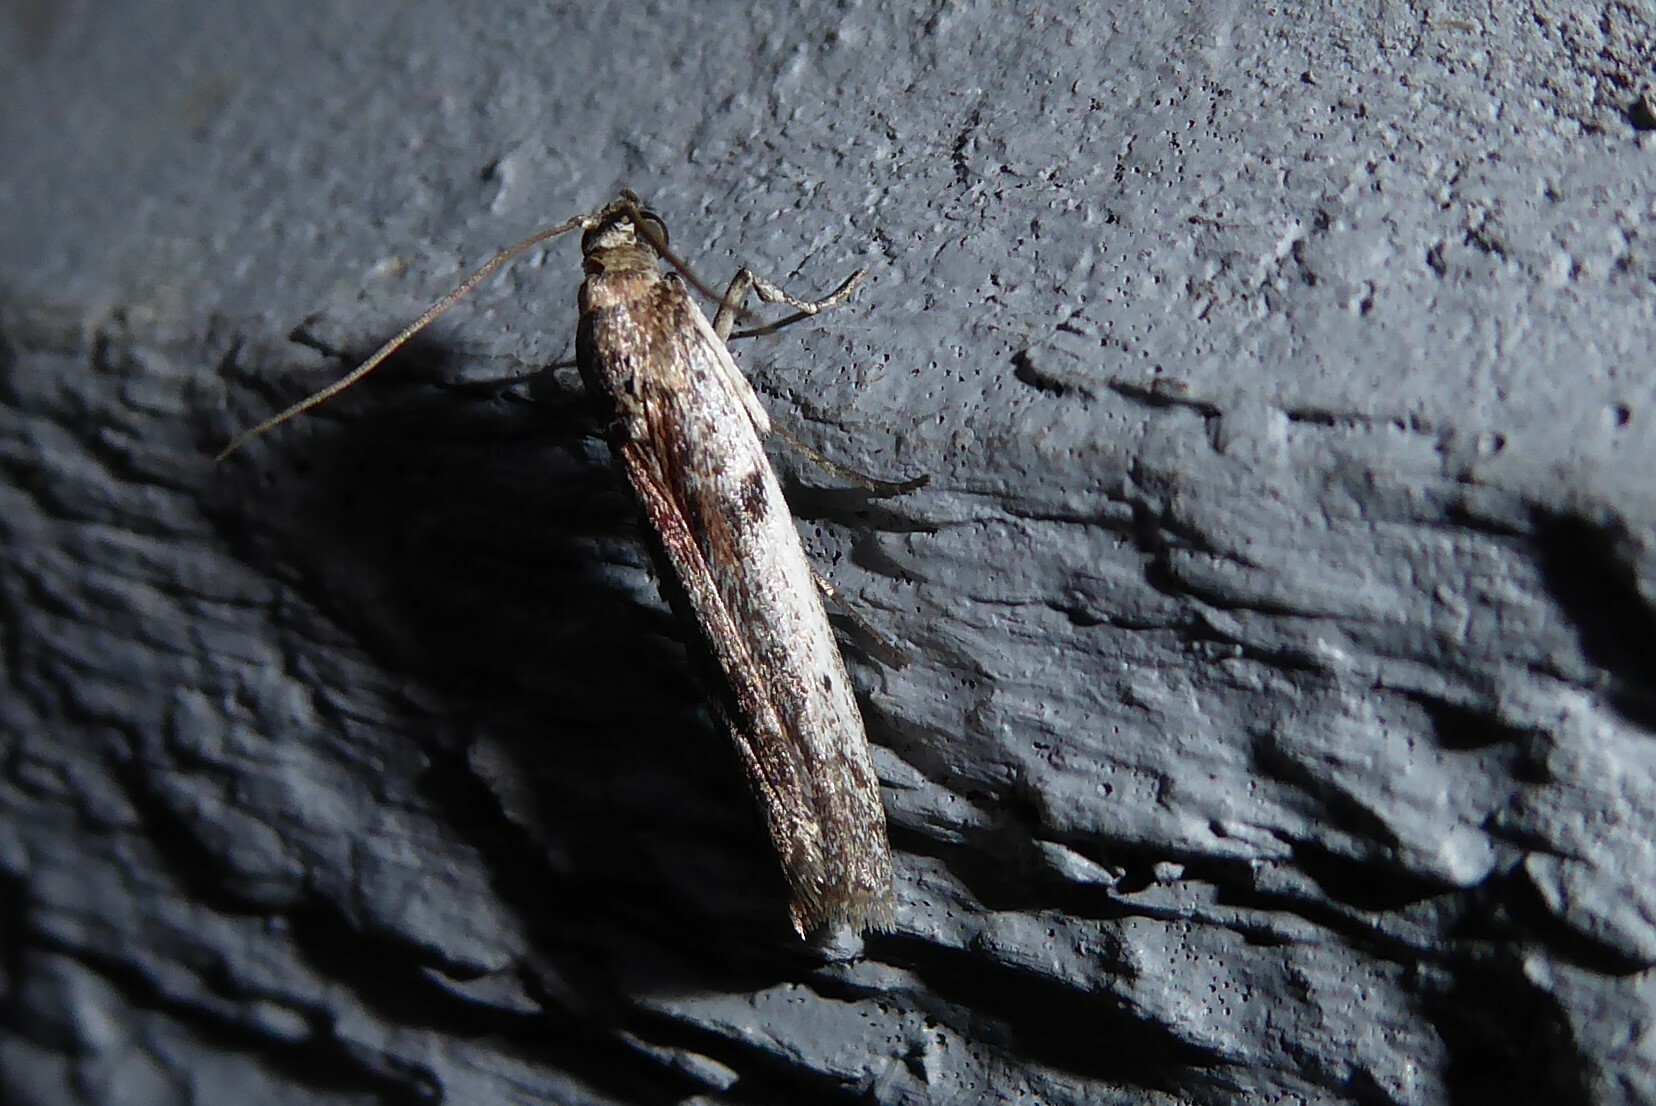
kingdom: Animalia
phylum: Arthropoda
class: Insecta
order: Lepidoptera
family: Pyralidae
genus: Patagoniodes
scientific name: Patagoniodes farinaria
